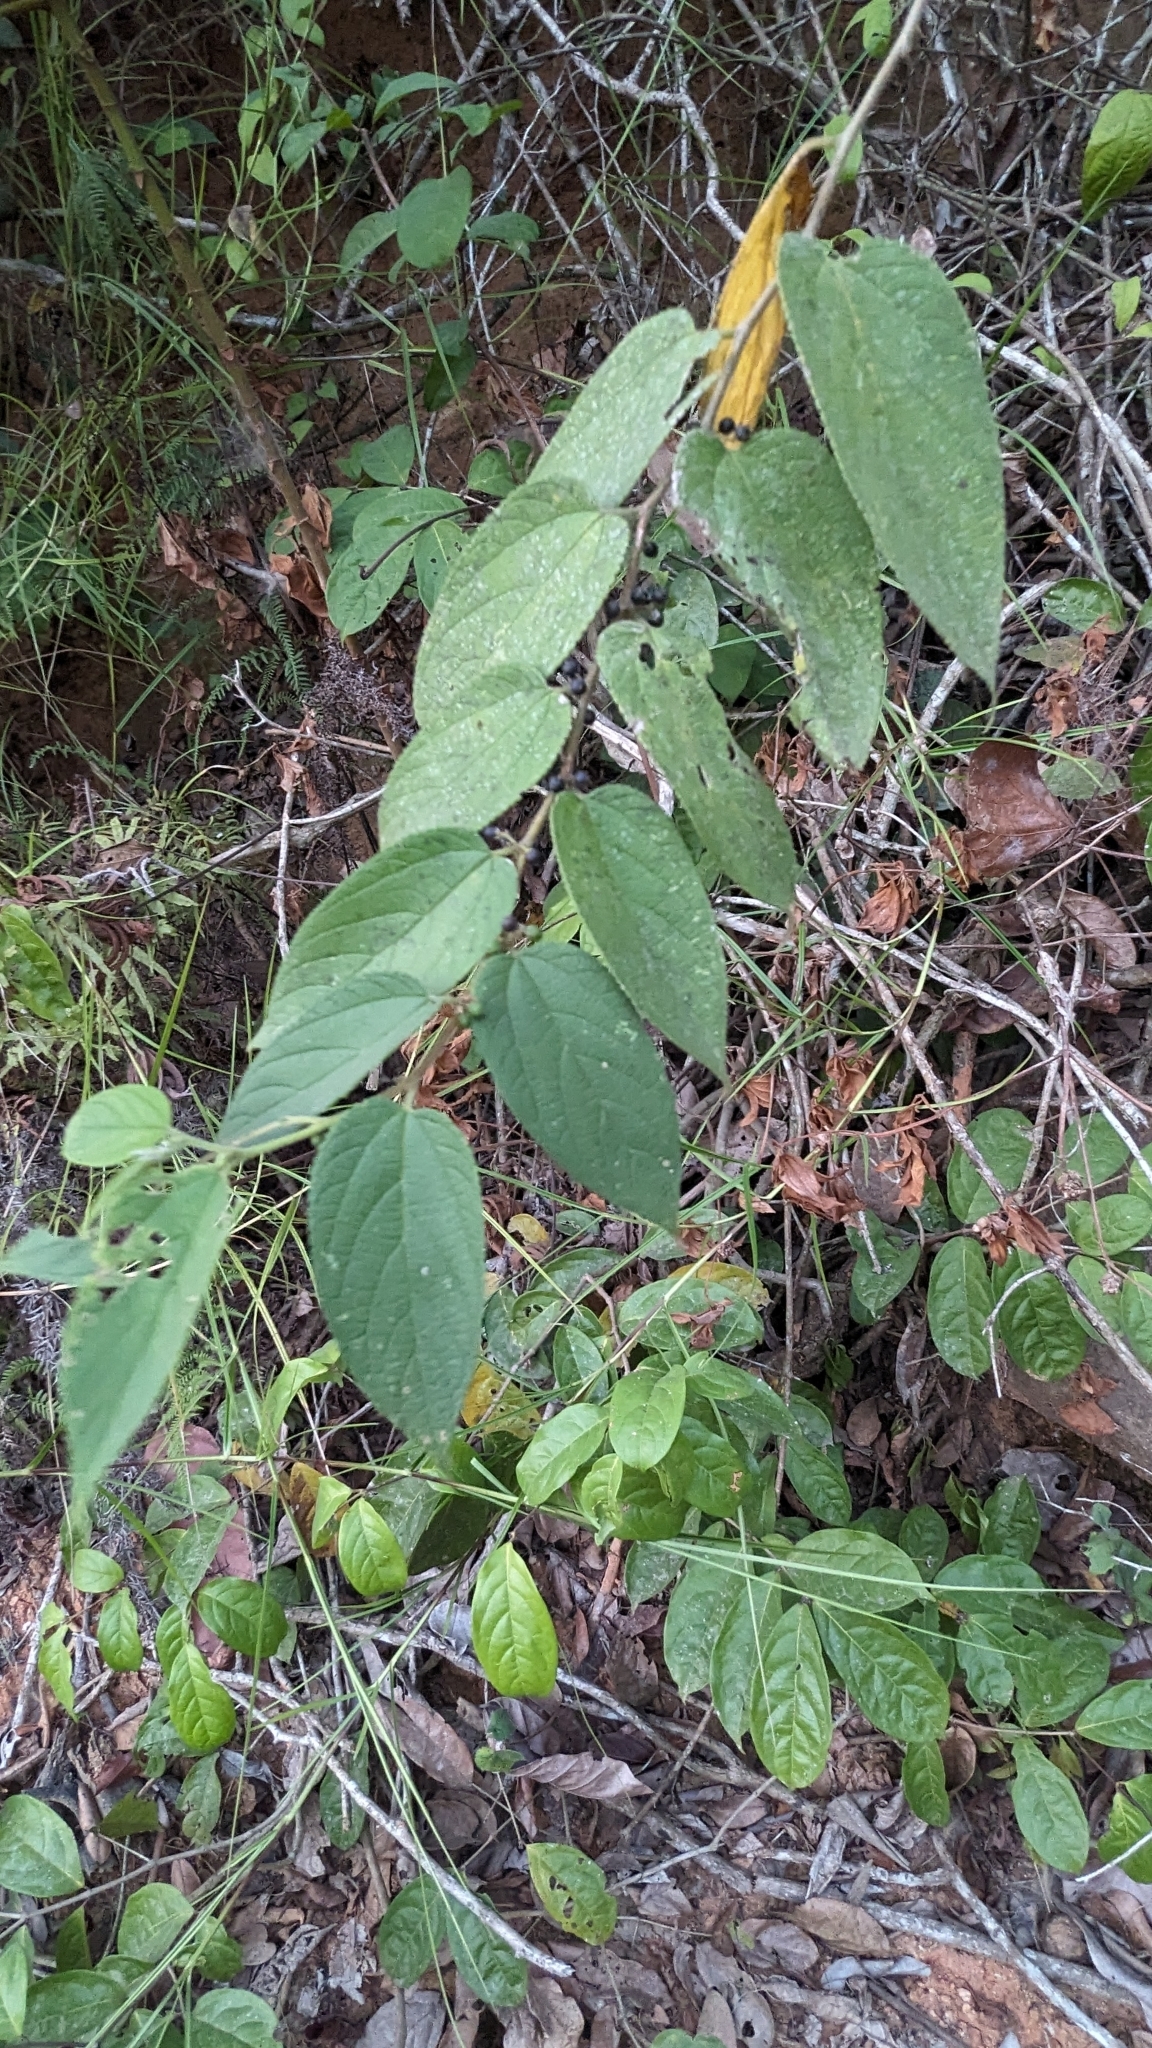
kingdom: Plantae
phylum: Tracheophyta
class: Magnoliopsida
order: Rosales
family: Cannabaceae
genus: Trema
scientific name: Trema orientale
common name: Indian charcoal tree
